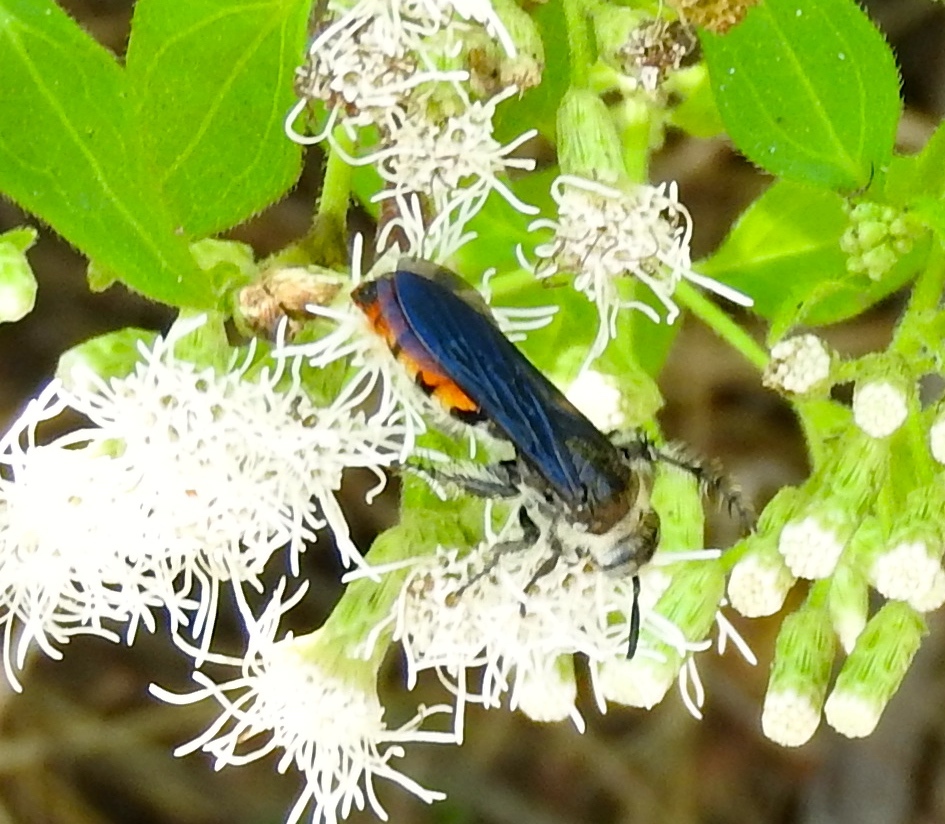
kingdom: Animalia
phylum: Arthropoda
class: Insecta
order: Hymenoptera
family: Scoliidae
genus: Dielis
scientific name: Dielis tolteca
